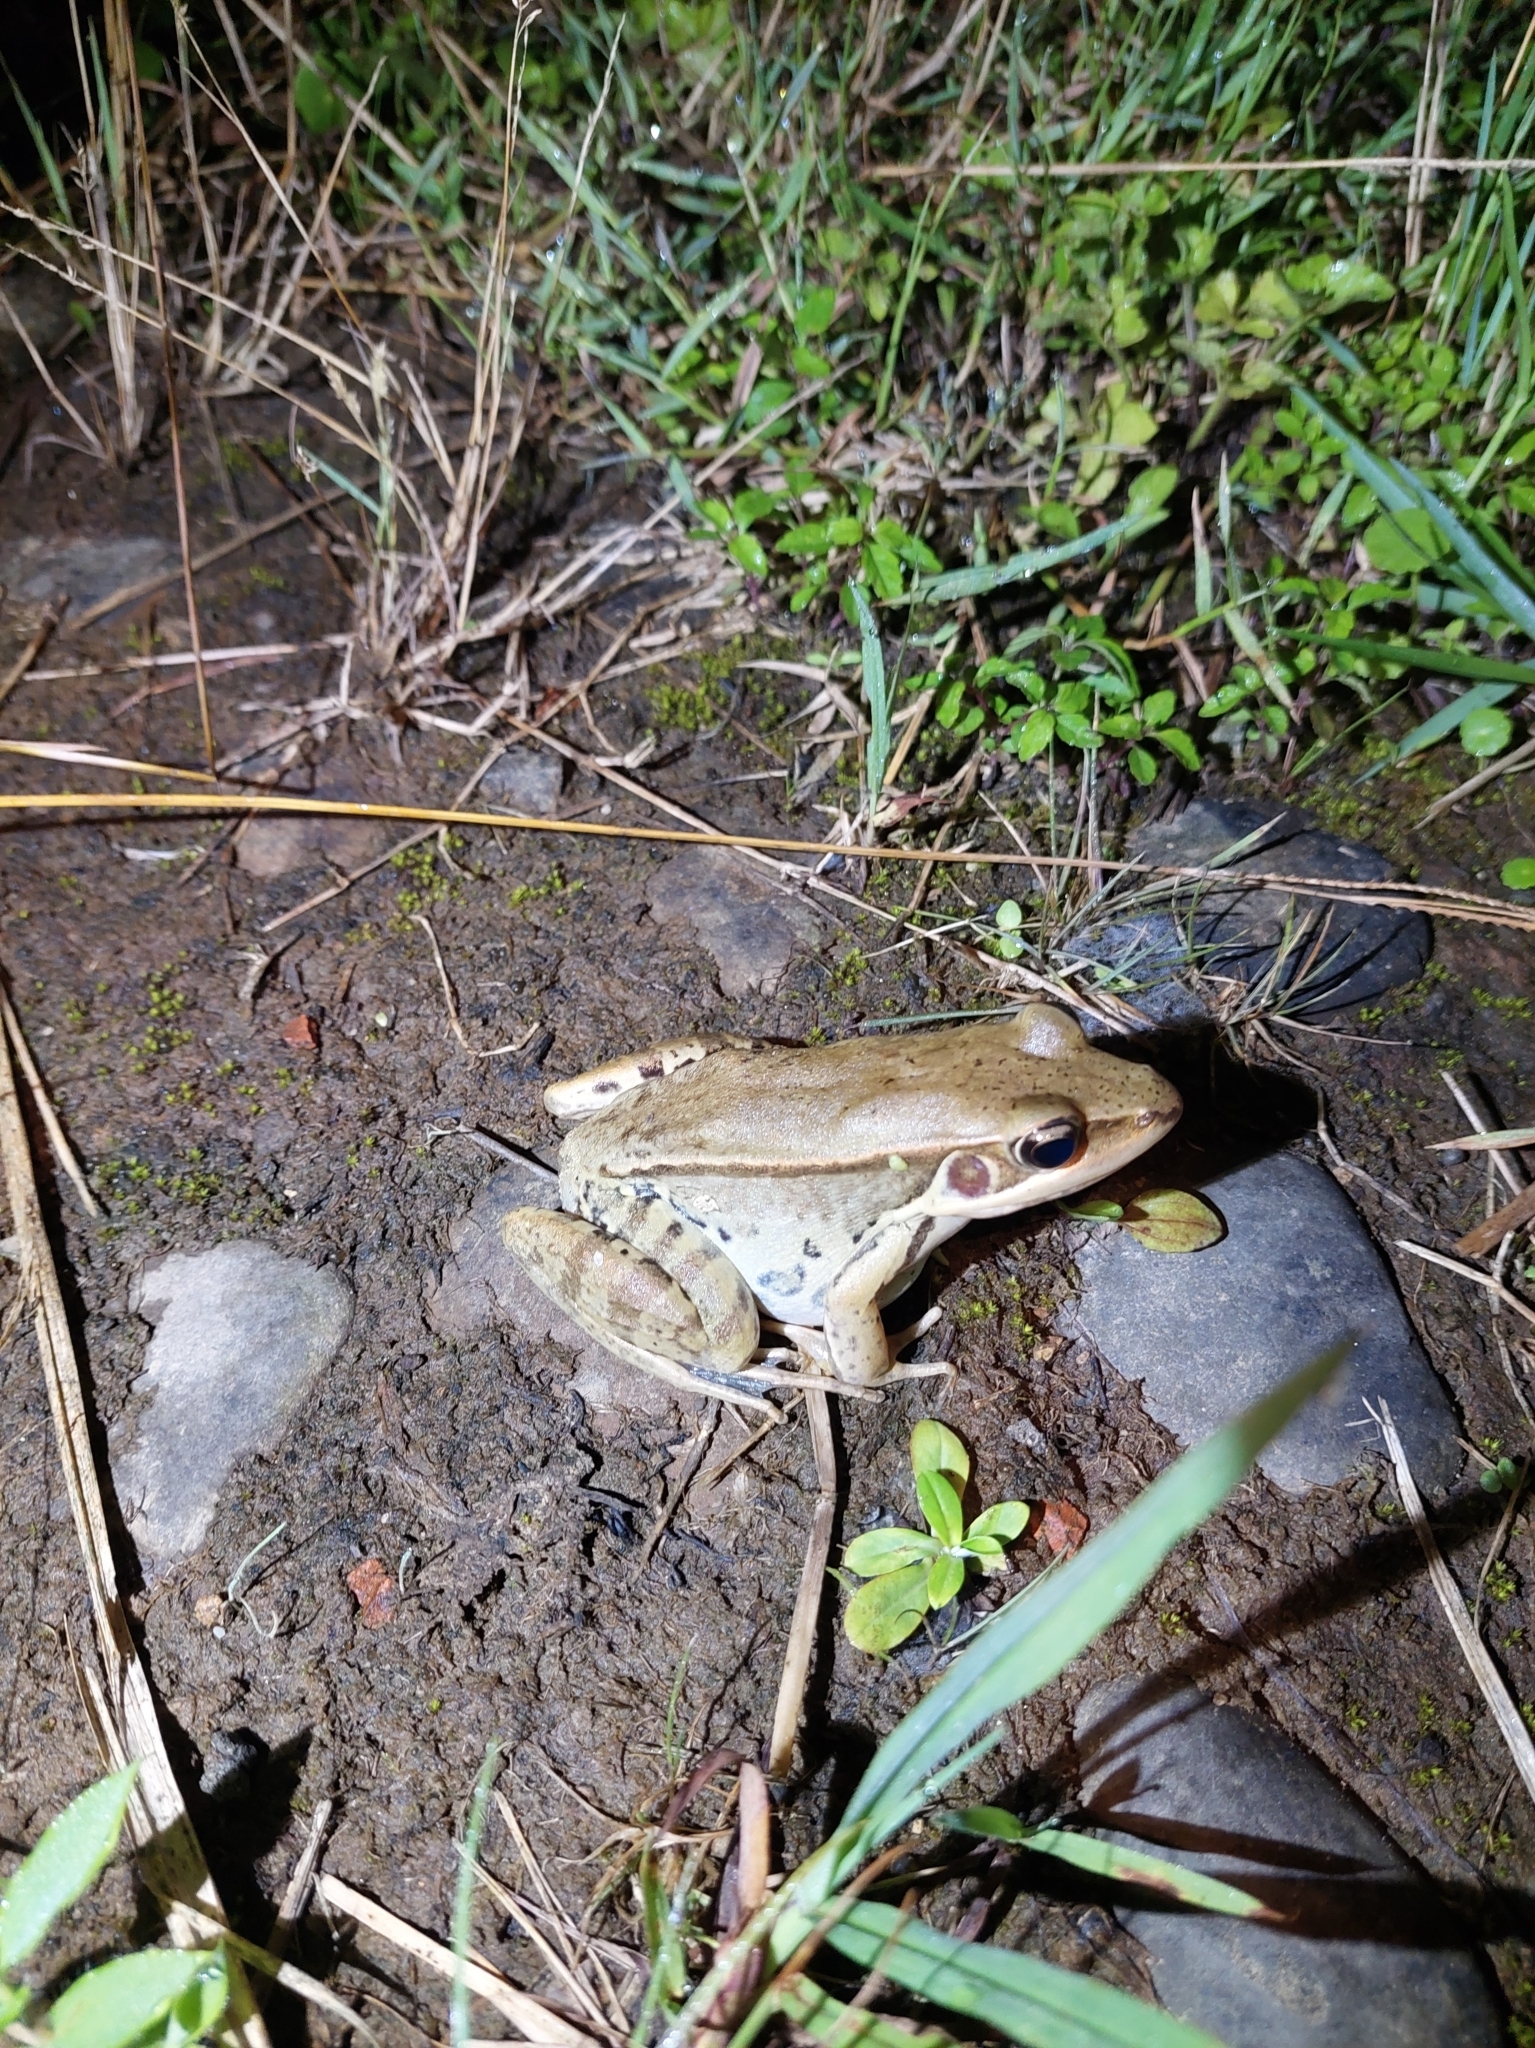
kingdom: Animalia
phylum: Chordata
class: Amphibia
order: Anura
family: Ranidae
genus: Sylvirana
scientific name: Sylvirana guentheri
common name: Guenther's amoy frog
